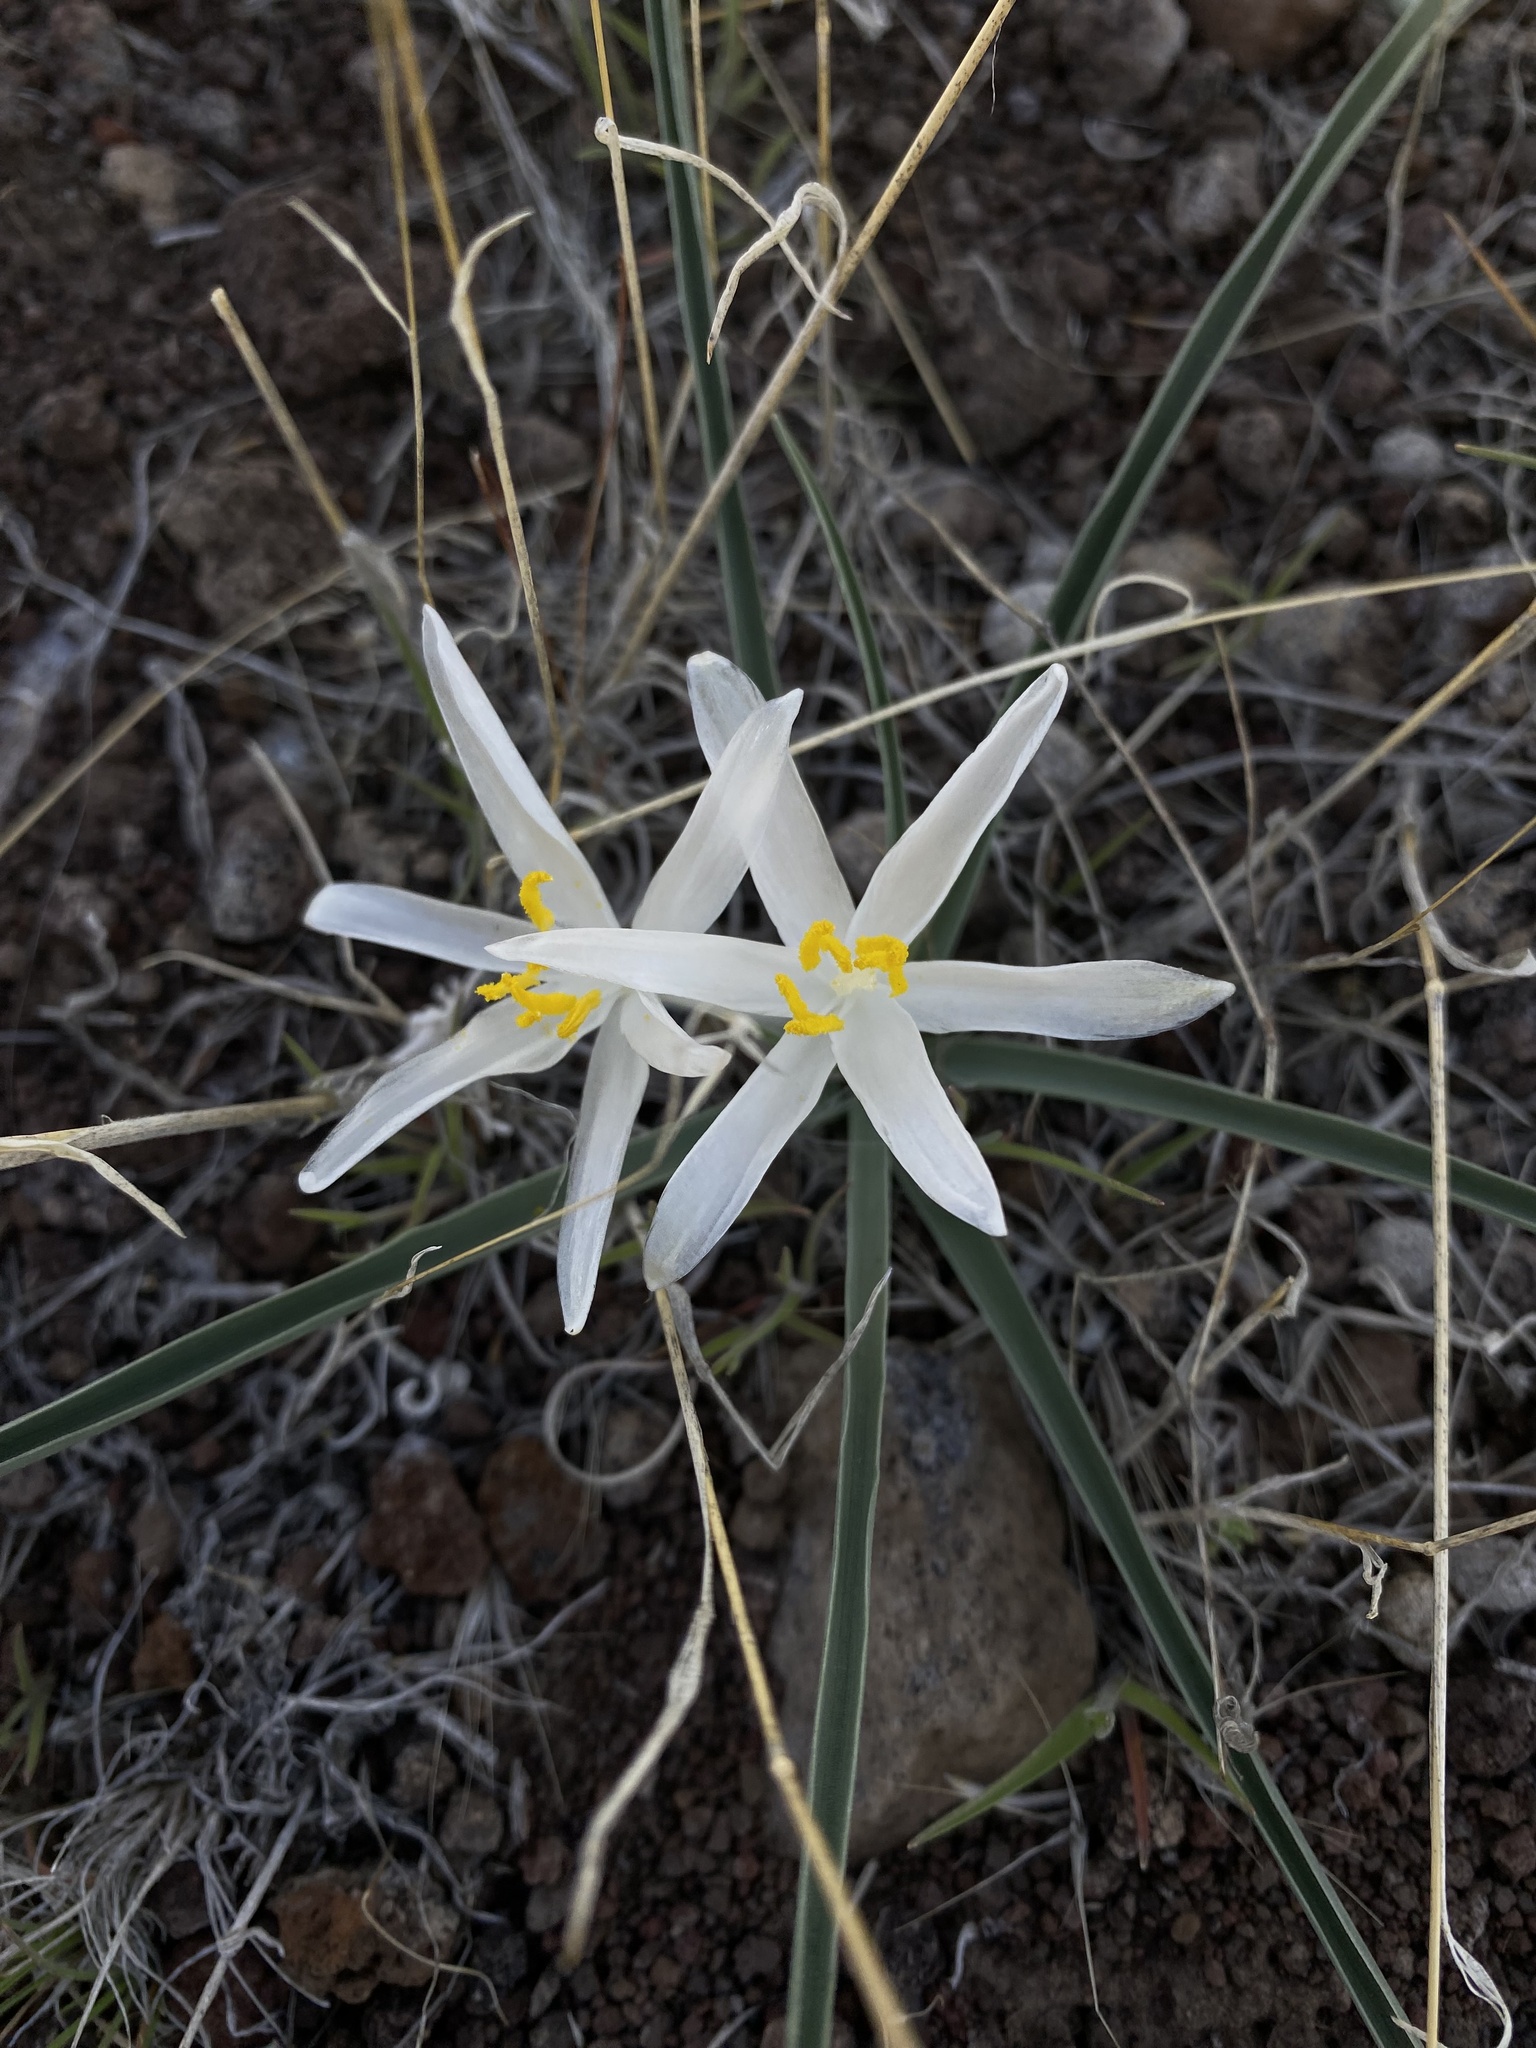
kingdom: Plantae
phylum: Tracheophyta
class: Liliopsida
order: Asparagales
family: Asparagaceae
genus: Leucocrinum
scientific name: Leucocrinum montanum
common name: Mountain-lily
